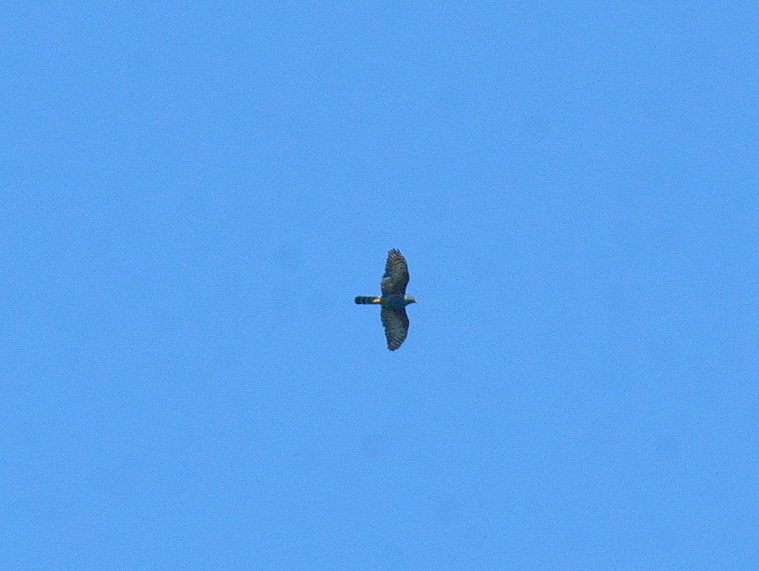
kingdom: Animalia
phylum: Chordata
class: Aves
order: Accipitriformes
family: Accipitridae
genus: Accipiter
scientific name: Accipiter bicolor
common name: Bicolored hawk
